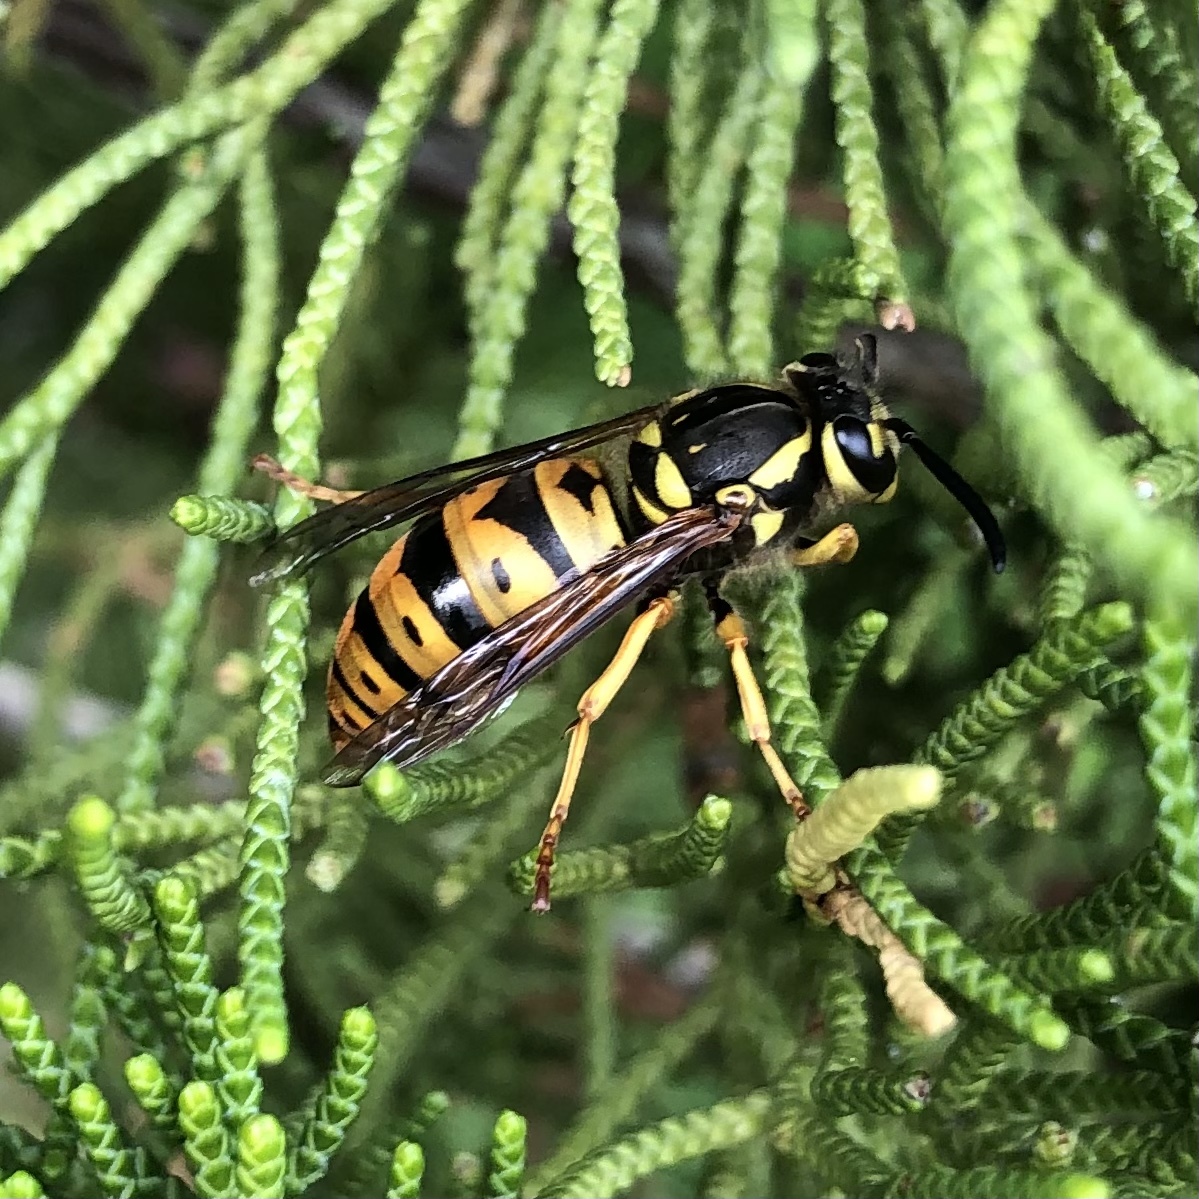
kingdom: Animalia
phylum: Arthropoda
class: Insecta
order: Hymenoptera
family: Vespidae
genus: Vespula
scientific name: Vespula maculifrons
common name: Eastern yellowjacket
